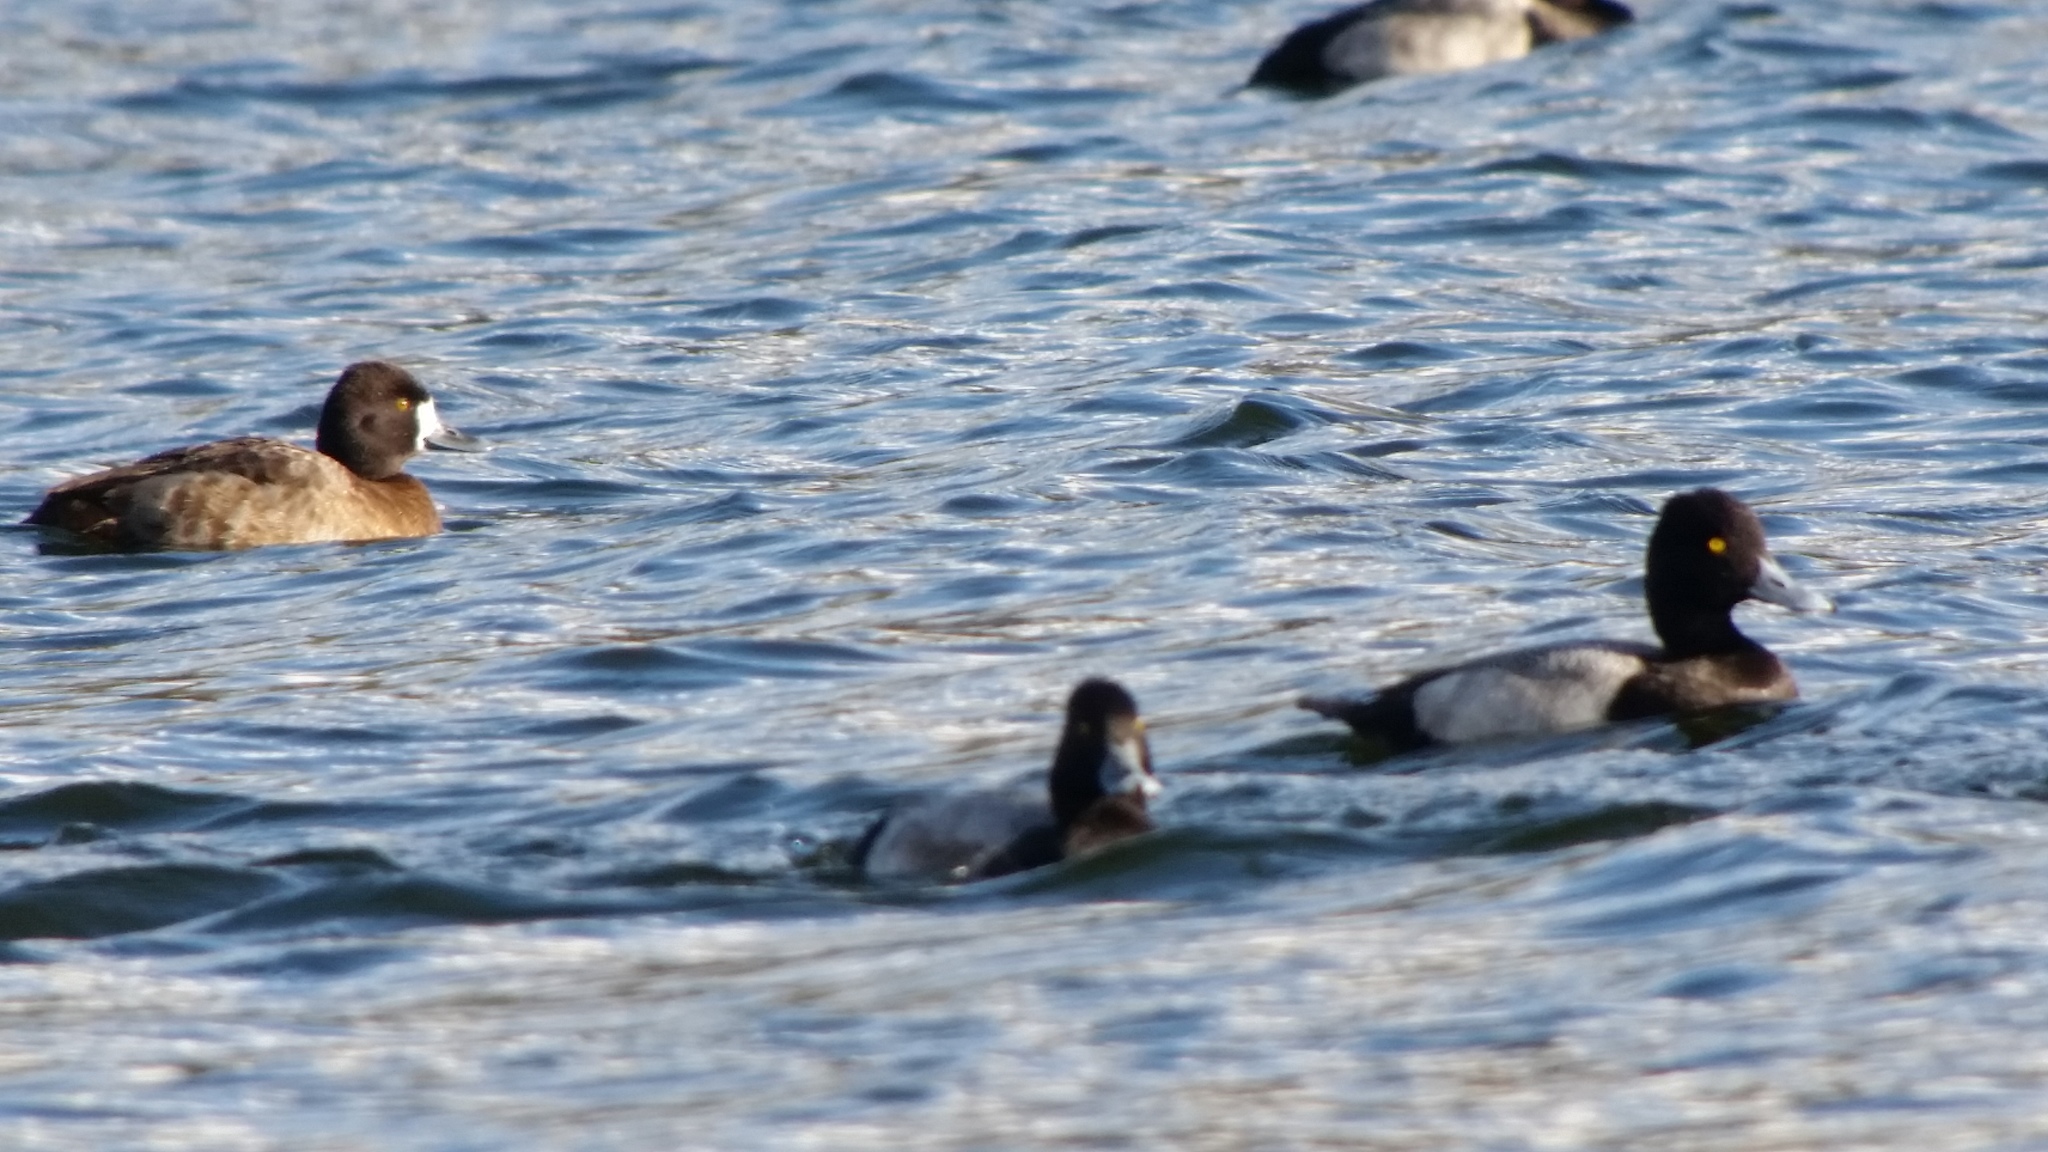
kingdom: Animalia
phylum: Chordata
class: Aves
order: Anseriformes
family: Anatidae
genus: Aythya
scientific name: Aythya affinis
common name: Lesser scaup
